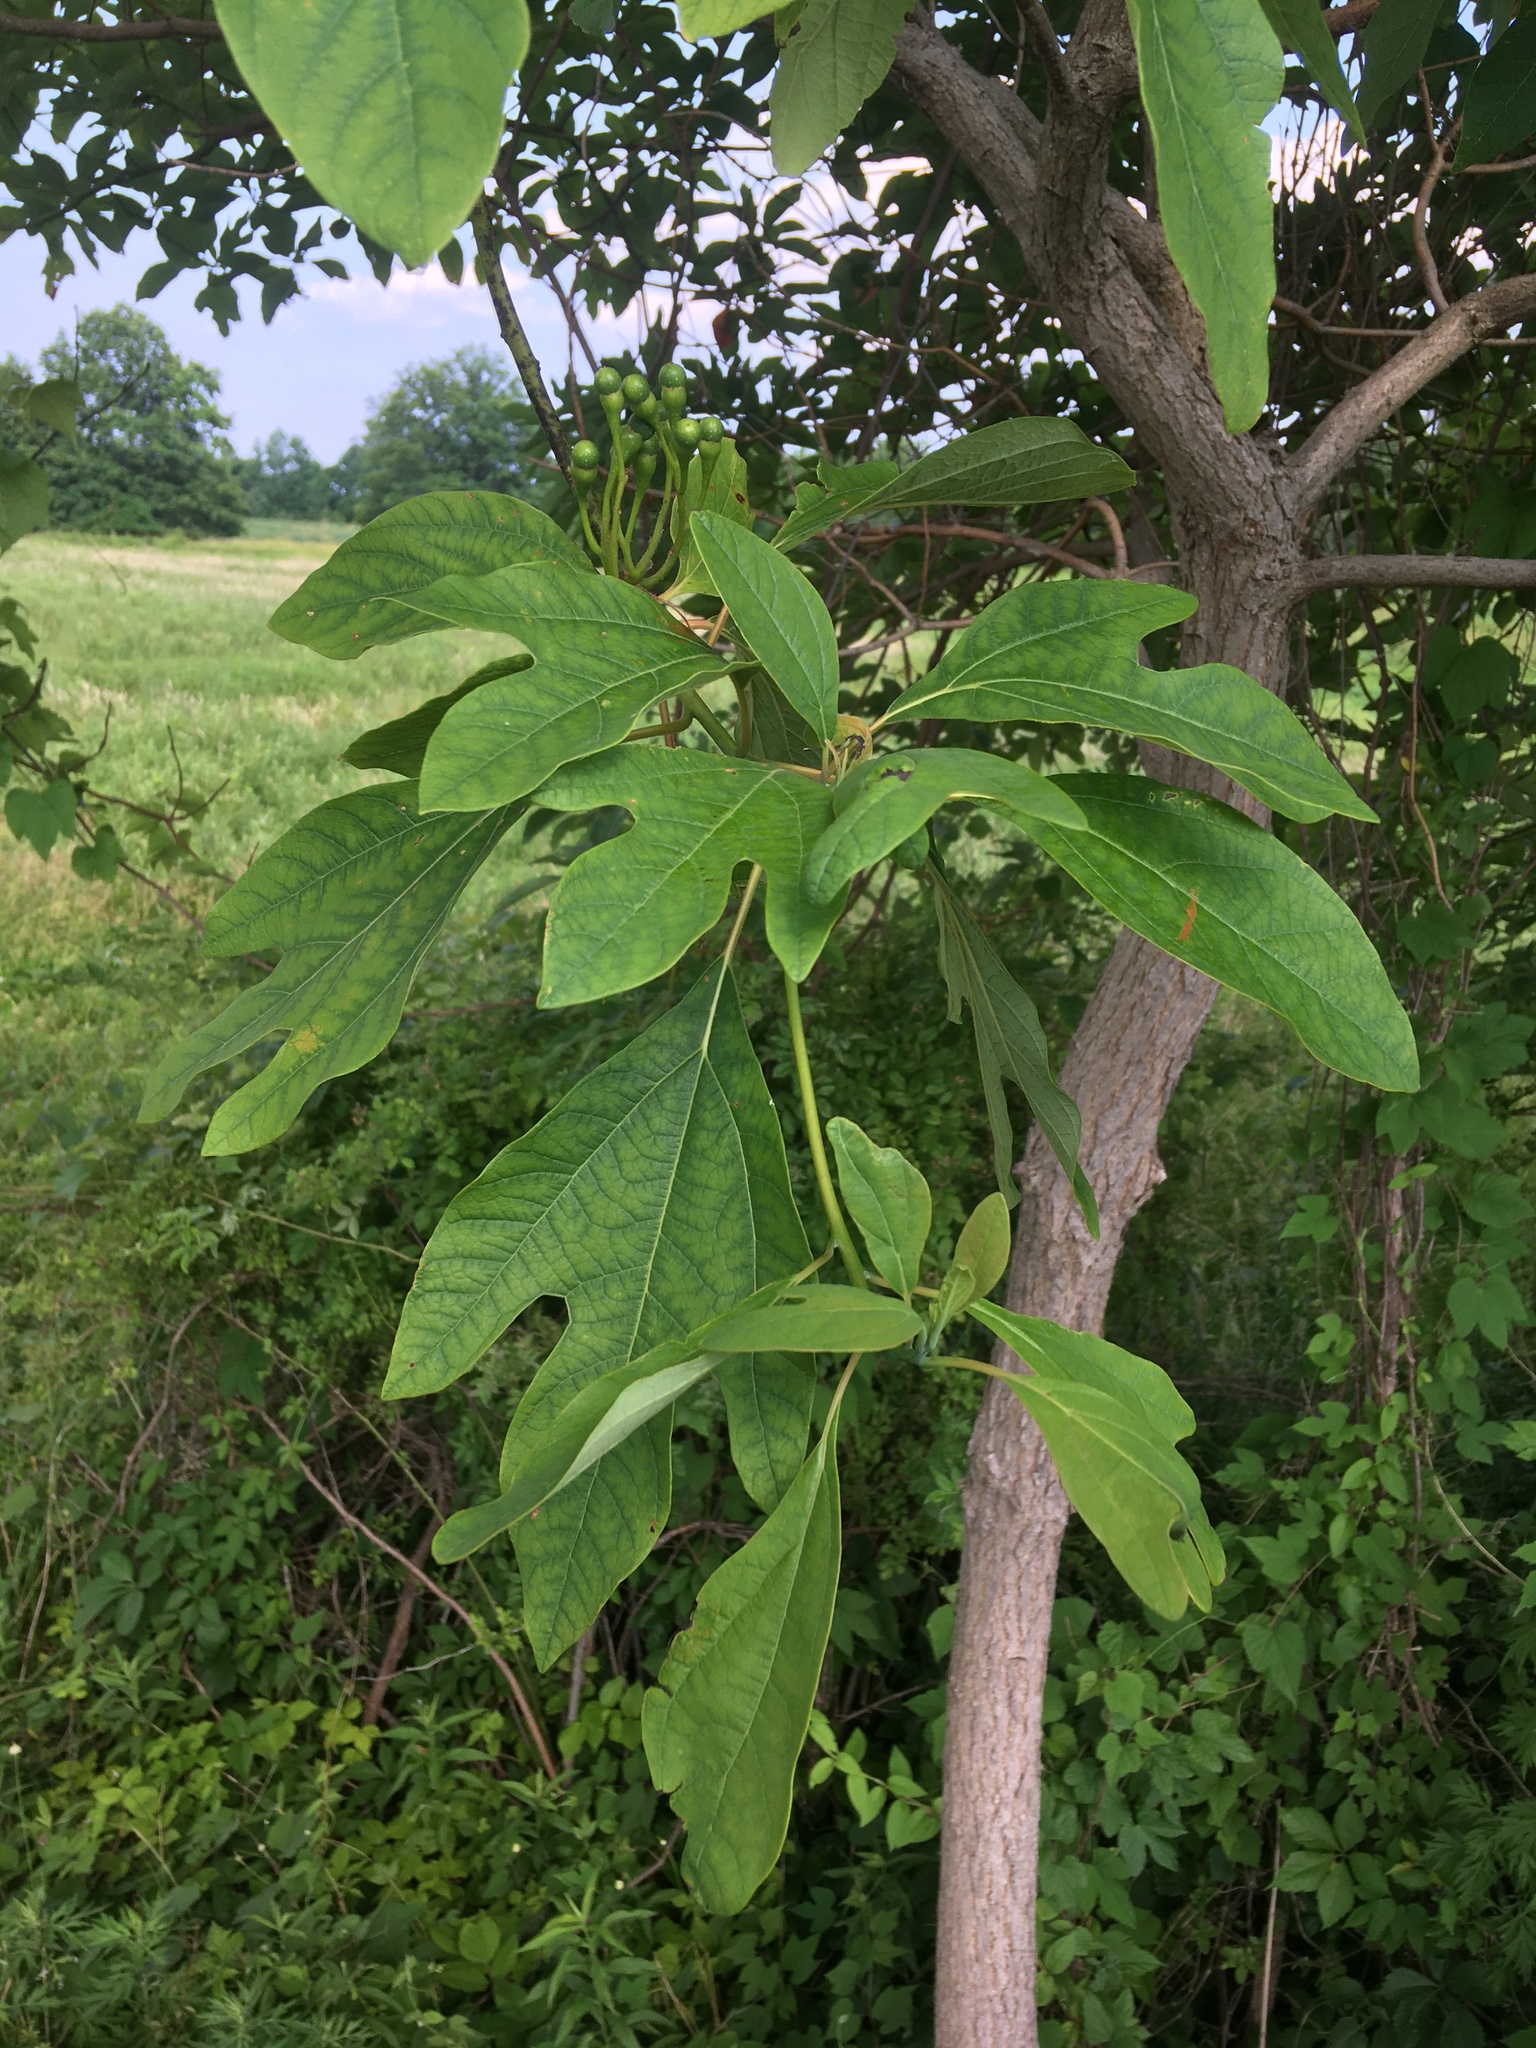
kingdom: Plantae
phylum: Tracheophyta
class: Magnoliopsida
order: Laurales
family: Lauraceae
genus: Sassafras
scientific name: Sassafras albidum
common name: Sassafras
